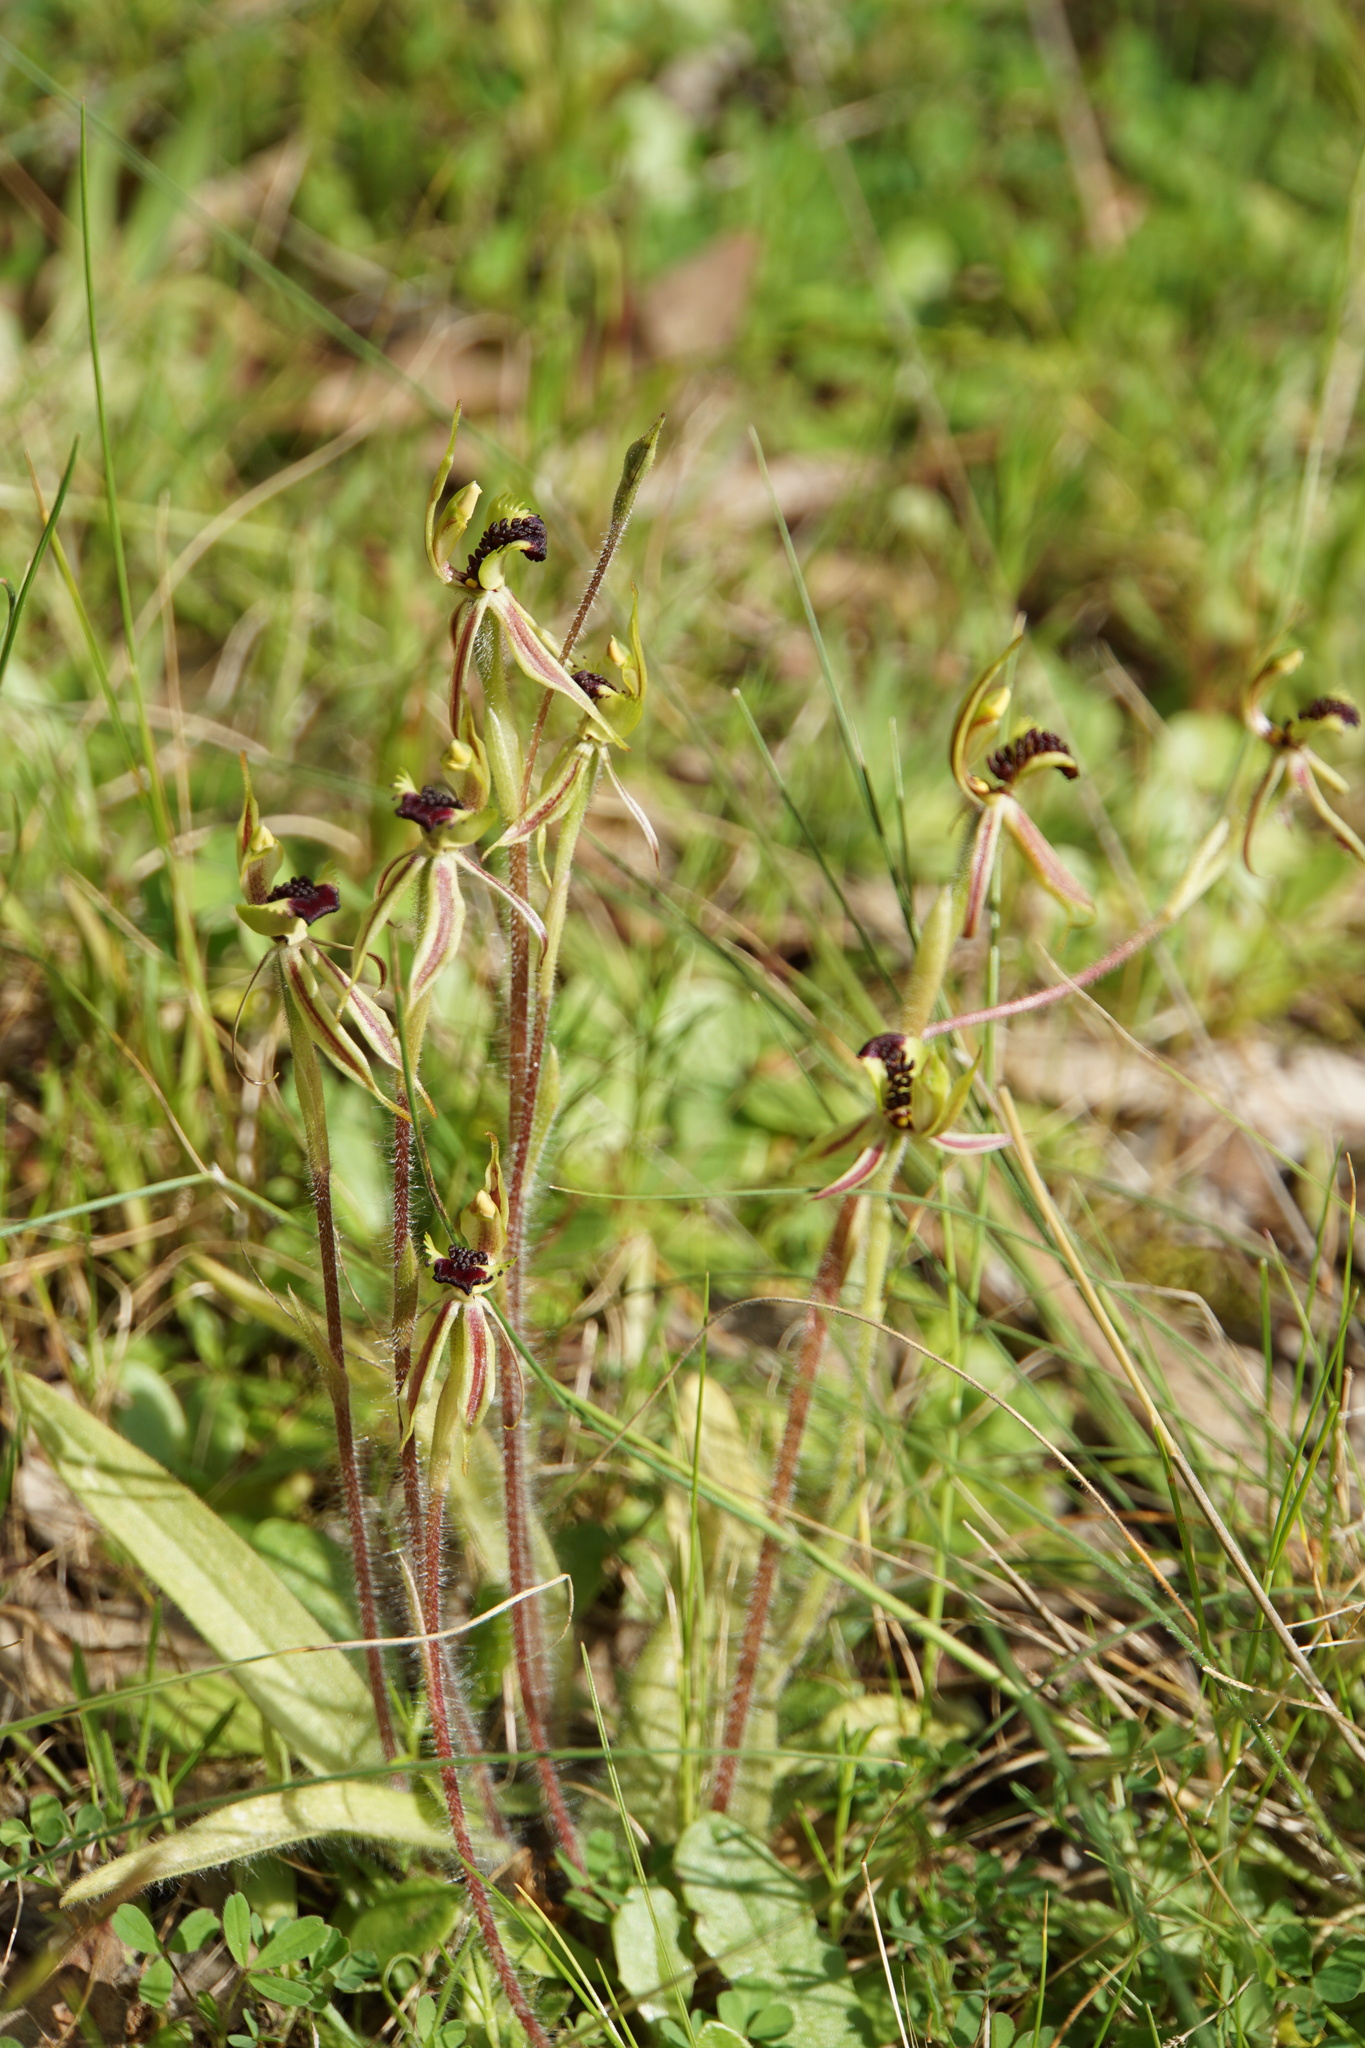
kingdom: Plantae
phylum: Tracheophyta
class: Liliopsida
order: Asparagales
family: Orchidaceae
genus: Caladenia
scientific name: Caladenia conferta
